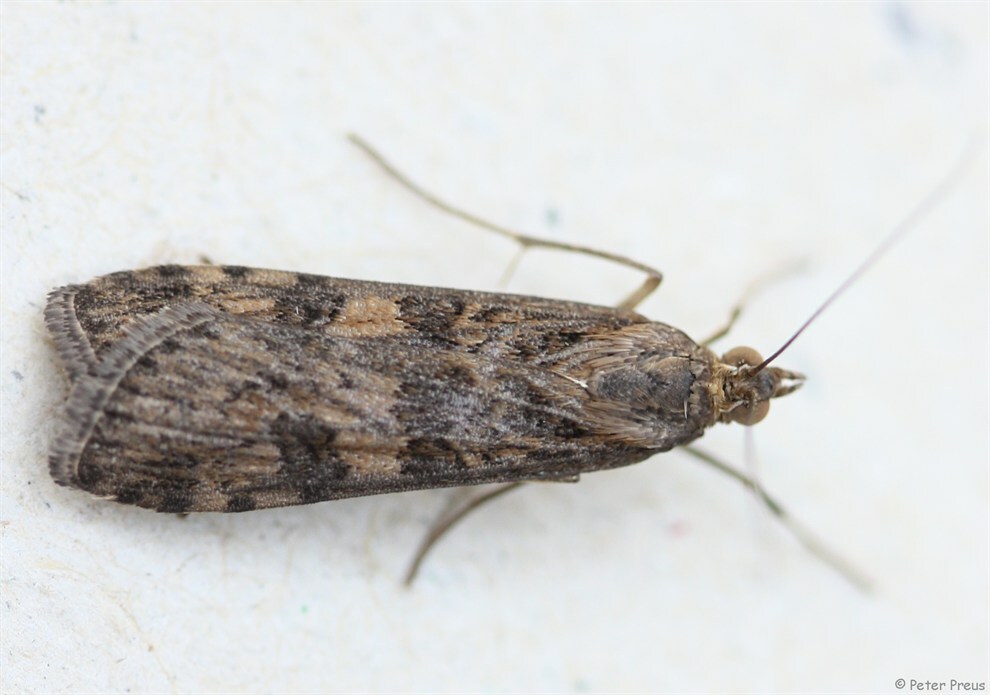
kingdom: Animalia
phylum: Arthropoda
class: Insecta
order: Lepidoptera
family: Crambidae
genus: Nomophila
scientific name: Nomophila noctuella
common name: Rush veneer
